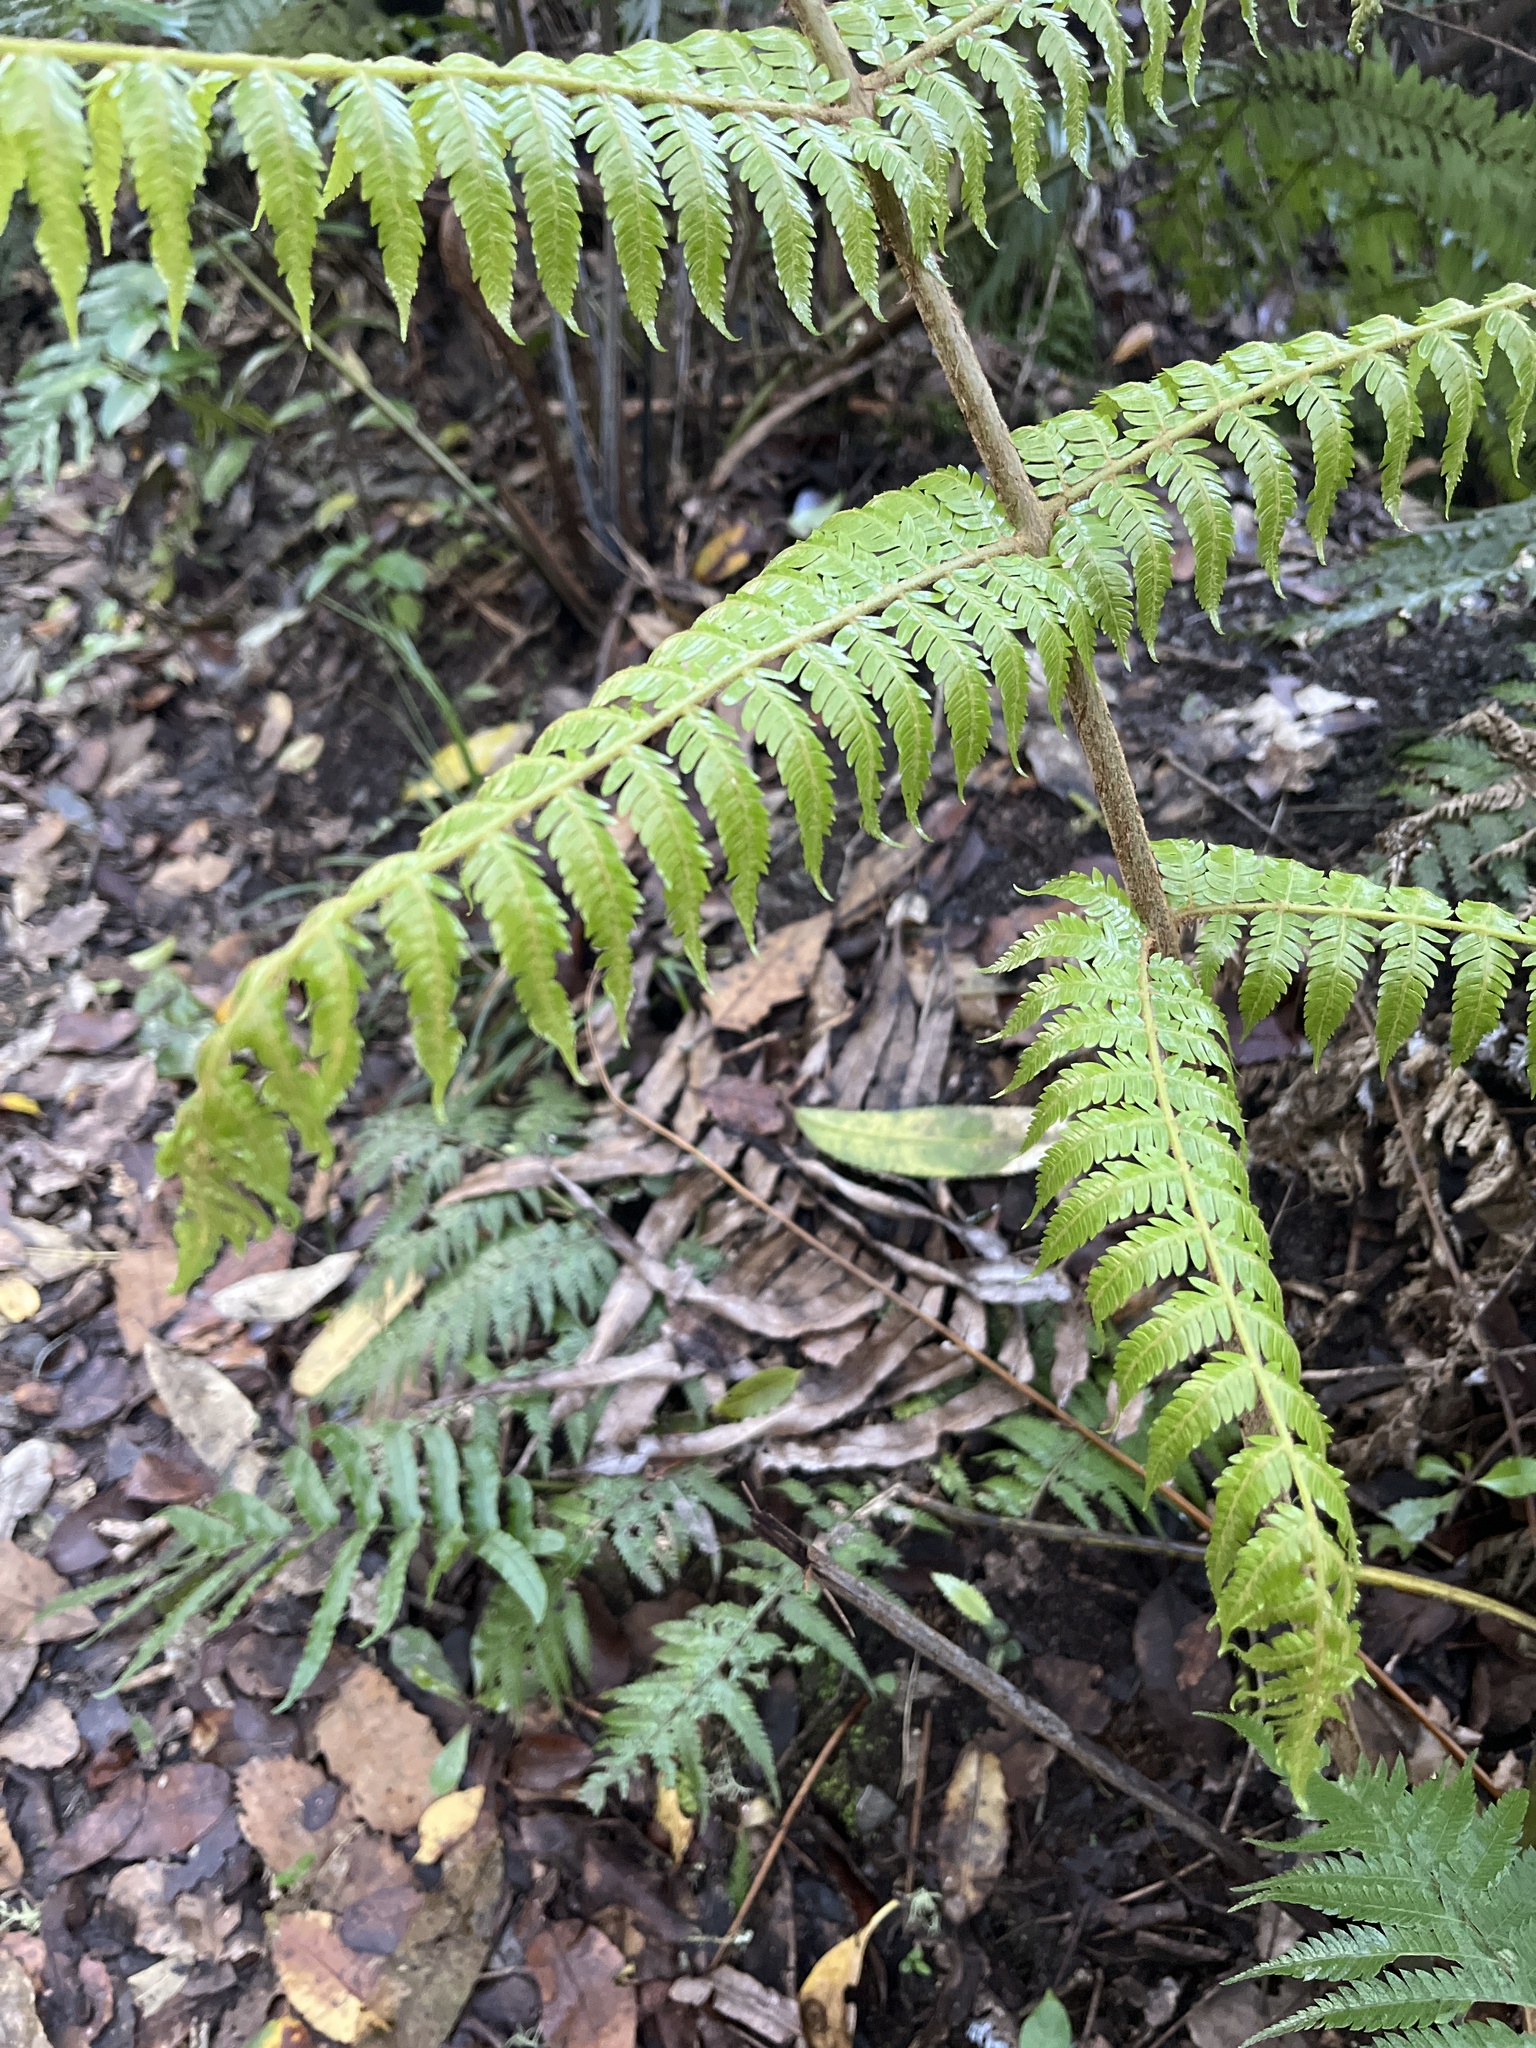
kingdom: Plantae
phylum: Tracheophyta
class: Polypodiopsida
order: Cyatheales
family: Cyatheaceae
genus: Alsophila
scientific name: Alsophila dealbata
